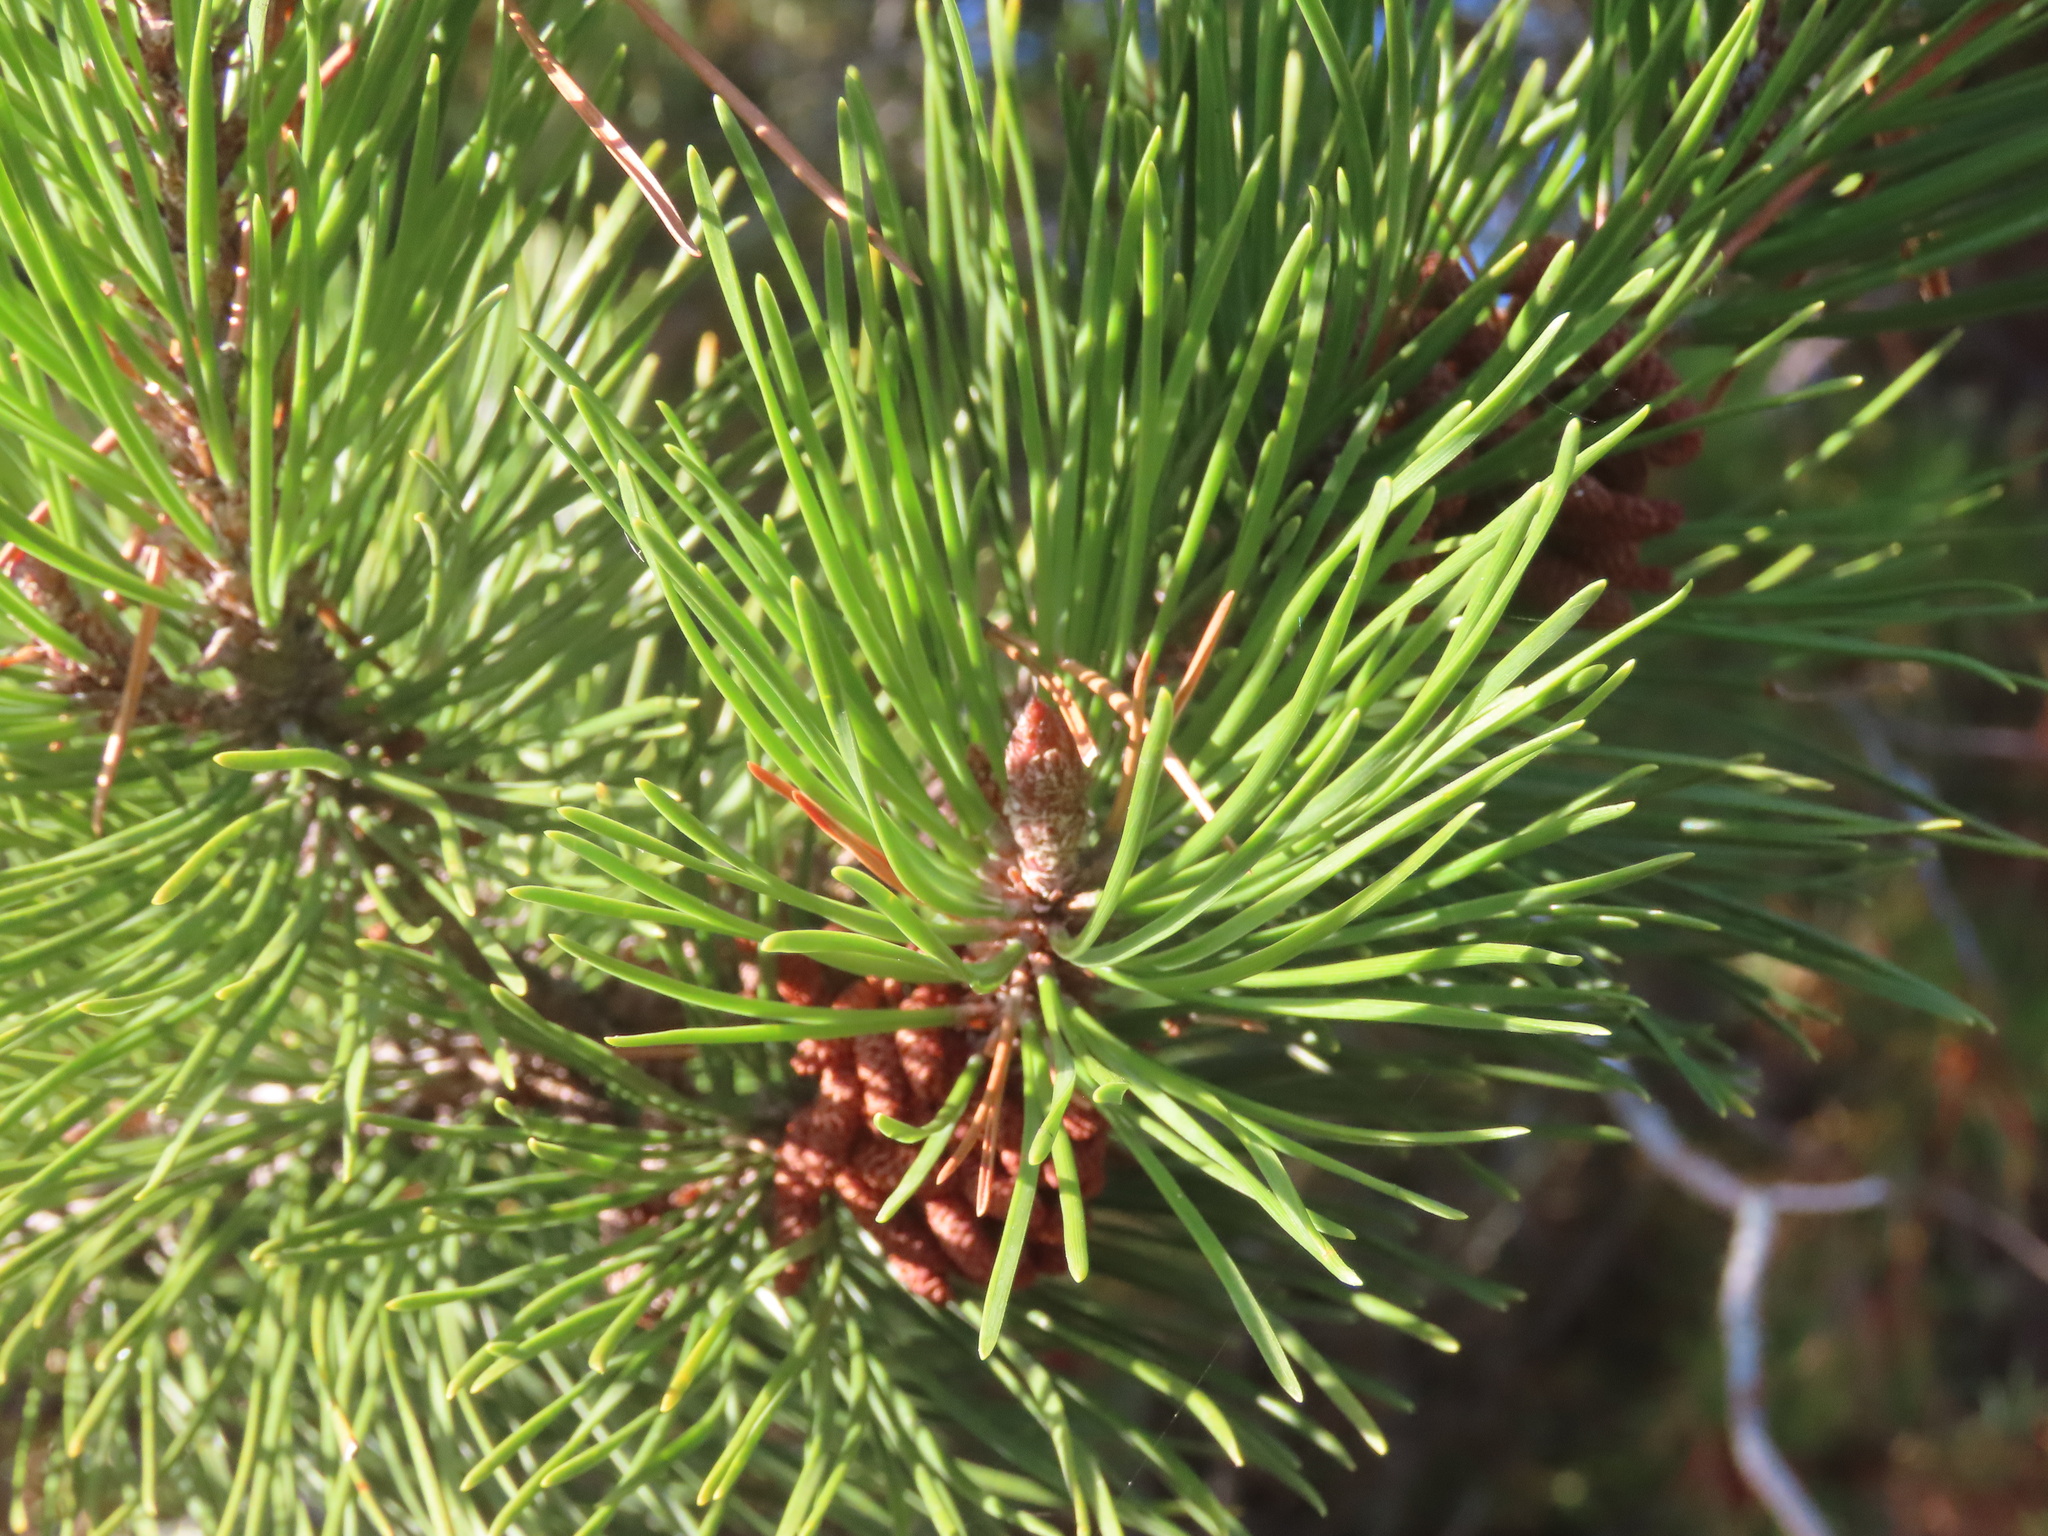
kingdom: Plantae
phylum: Tracheophyta
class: Pinopsida
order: Pinales
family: Pinaceae
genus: Pinus
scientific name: Pinus contorta
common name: Lodgepole pine
